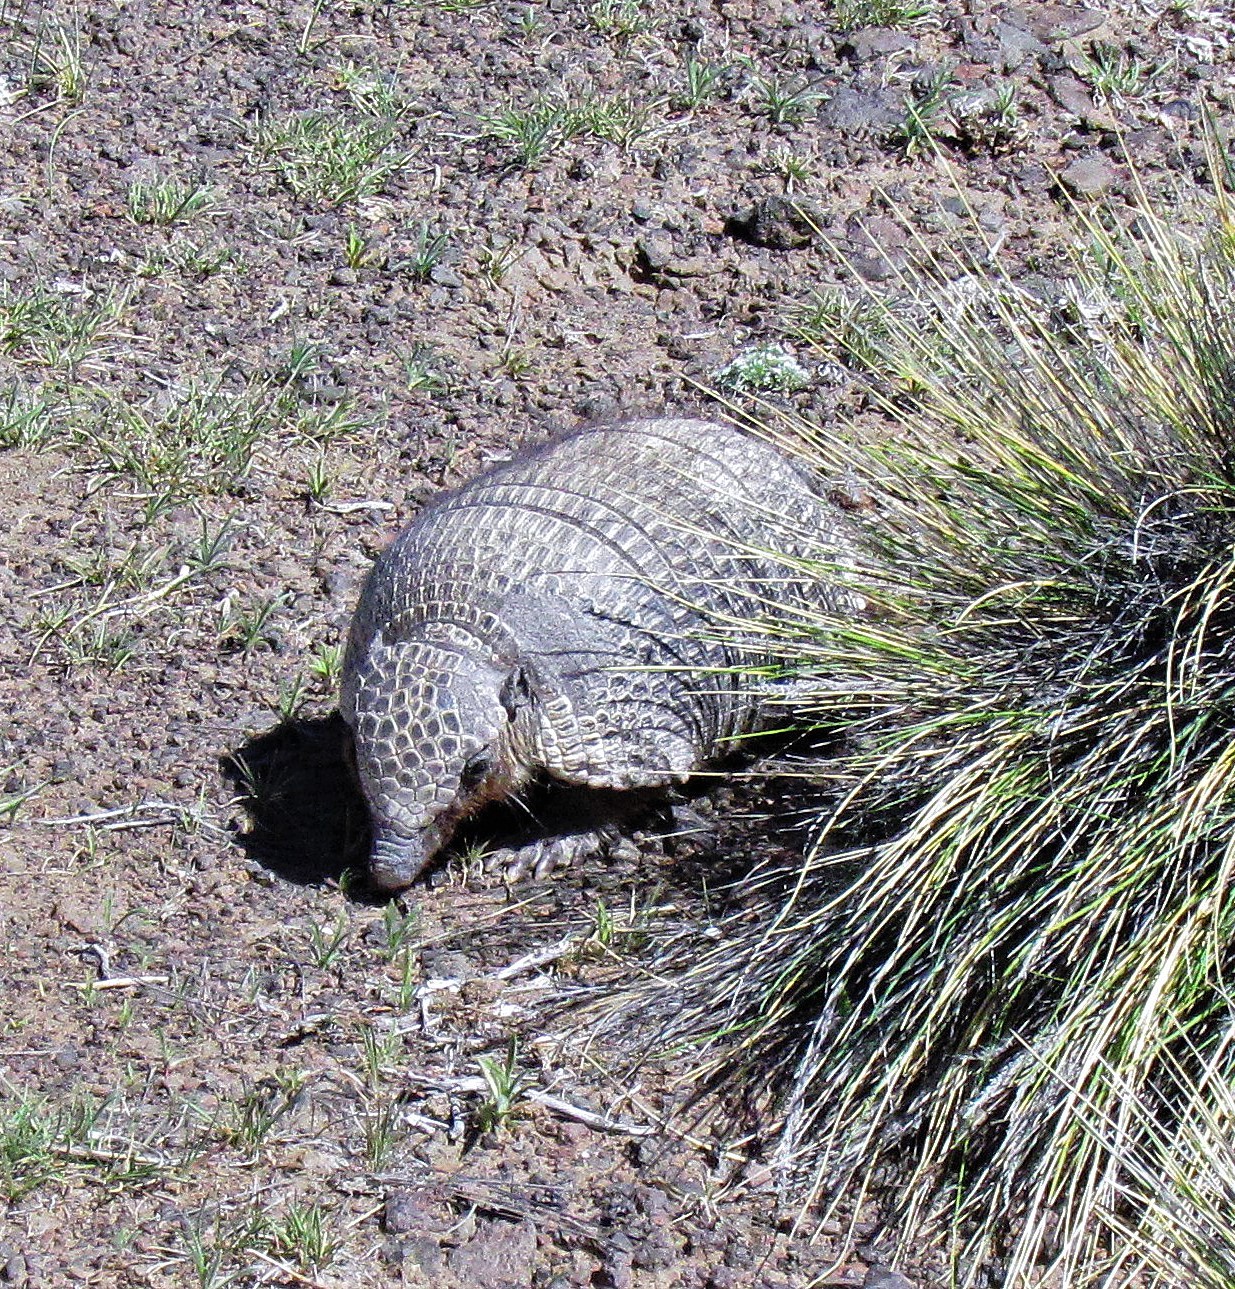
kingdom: Animalia
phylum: Chordata
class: Mammalia
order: Cingulata
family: Dasypodidae
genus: Zaedyus
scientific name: Zaedyus pichiy
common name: Pichi
